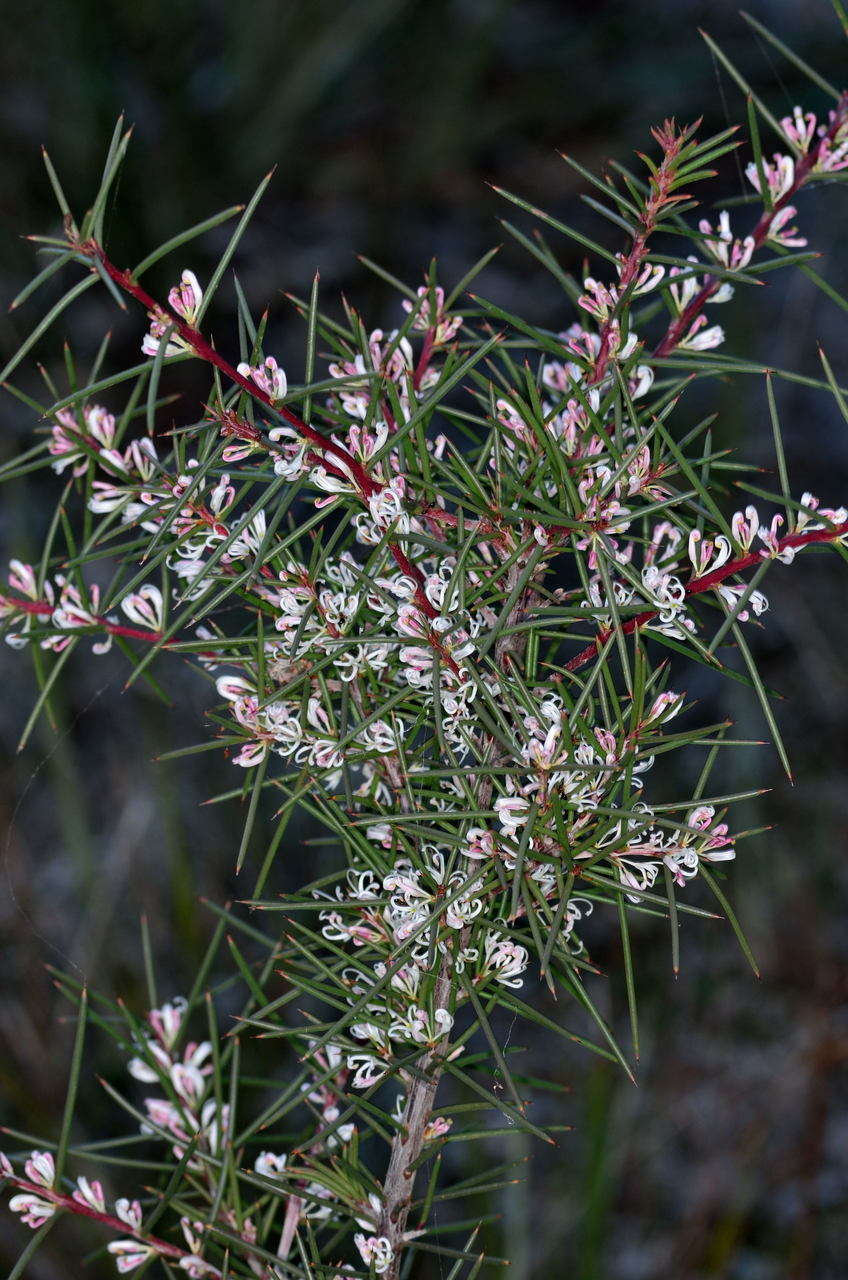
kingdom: Plantae
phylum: Tracheophyta
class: Magnoliopsida
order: Proteales
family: Proteaceae
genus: Hakea
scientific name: Hakea decurrens
